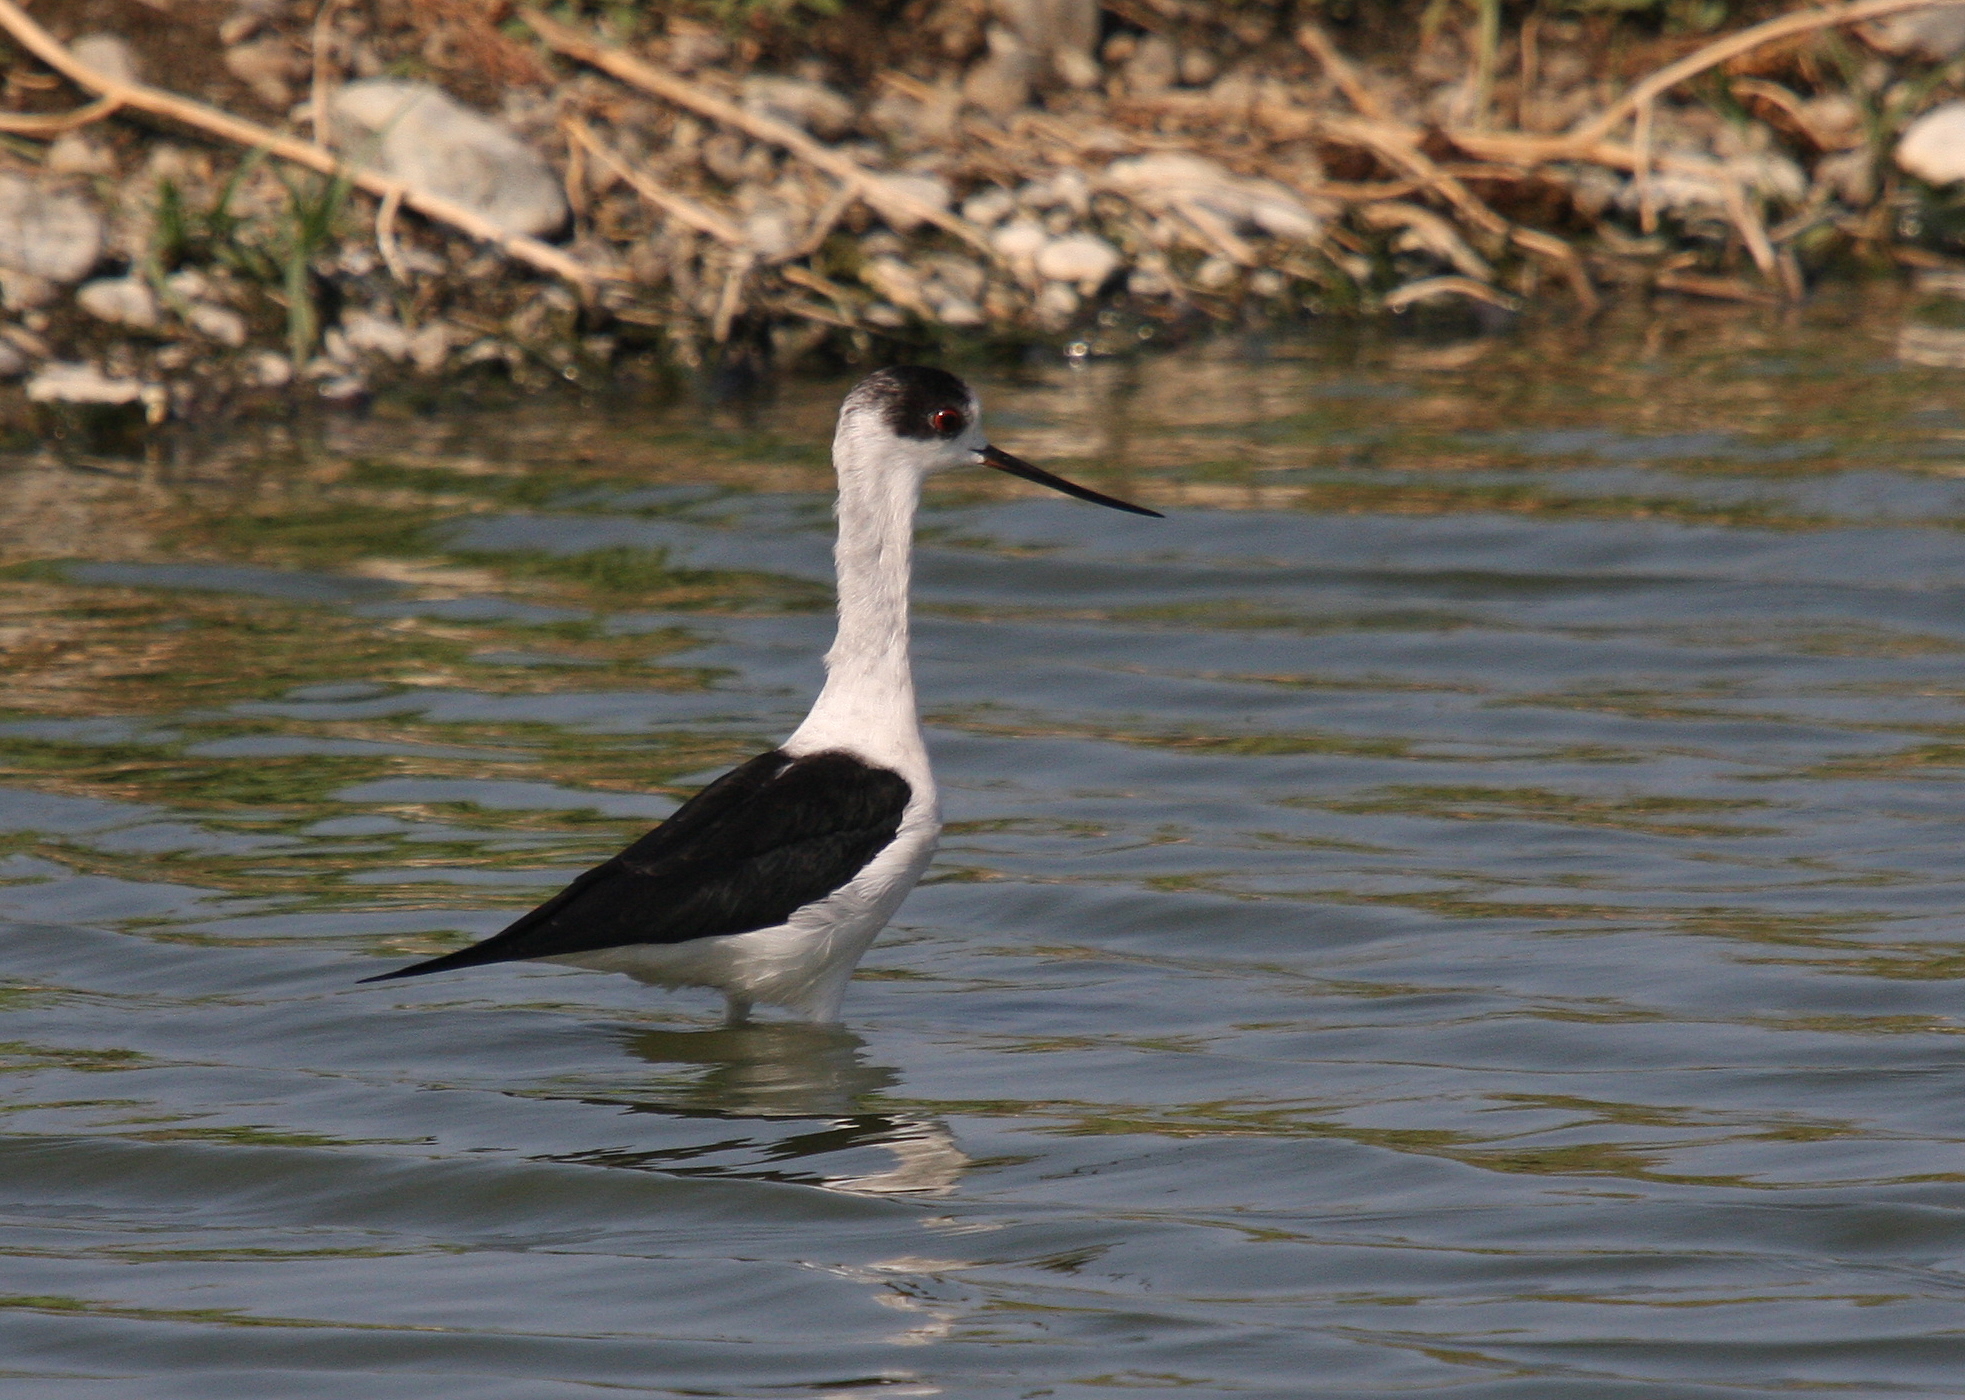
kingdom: Animalia
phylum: Chordata
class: Aves
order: Charadriiformes
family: Recurvirostridae
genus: Himantopus
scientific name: Himantopus himantopus
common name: Black-winged stilt
